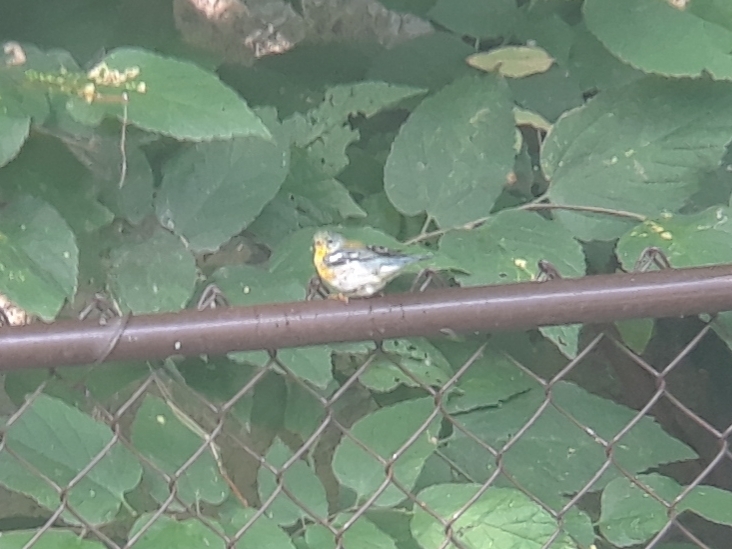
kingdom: Animalia
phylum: Chordata
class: Aves
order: Passeriformes
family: Parulidae
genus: Setophaga
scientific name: Setophaga americana
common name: Northern parula
